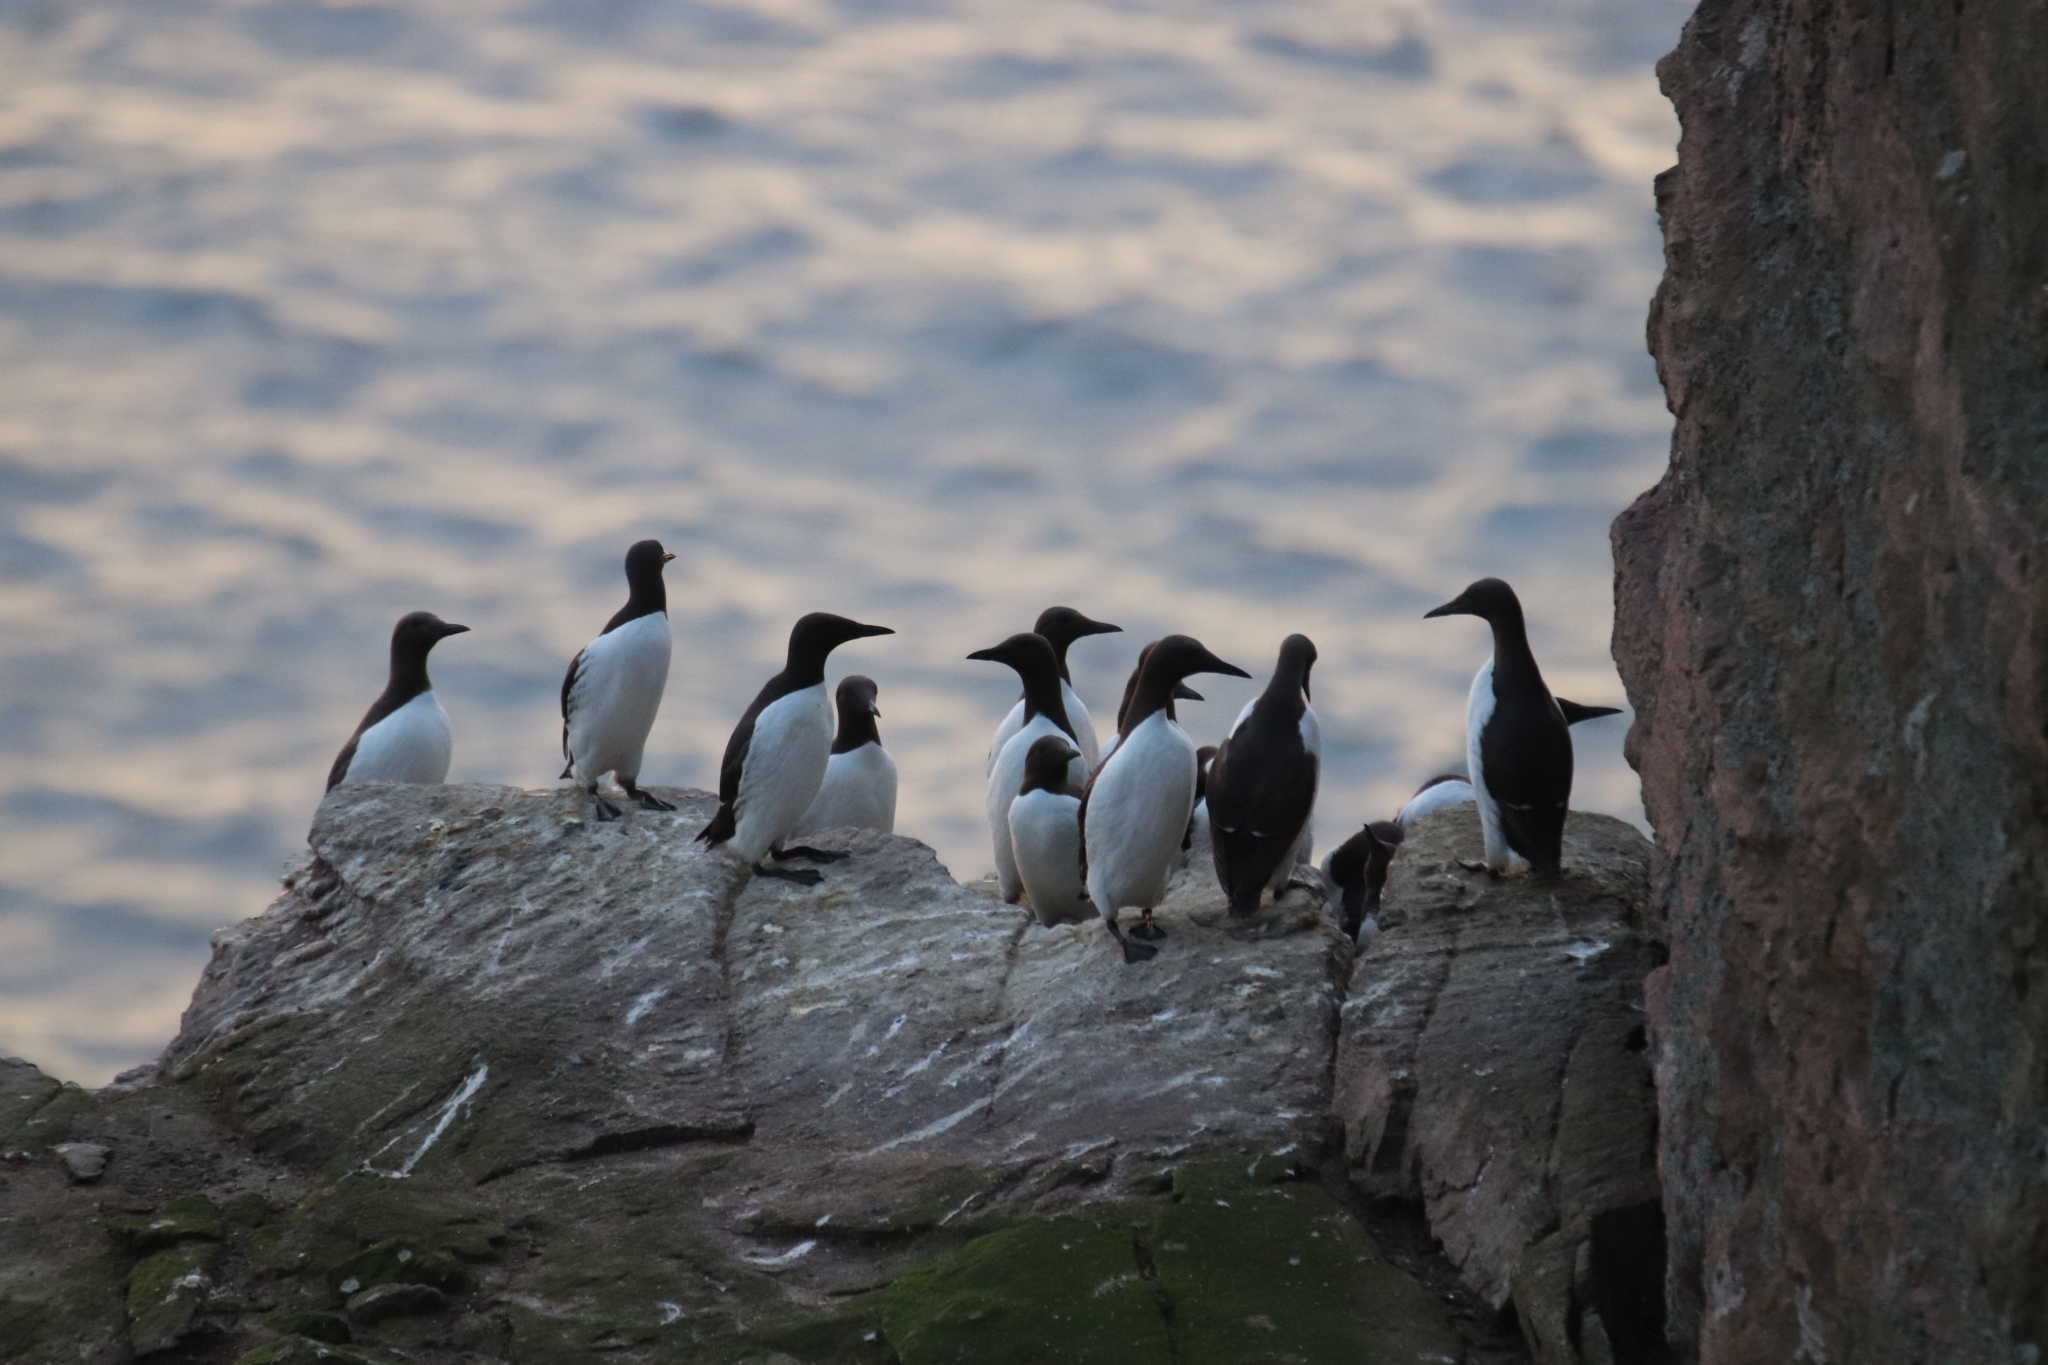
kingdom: Animalia
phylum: Chordata
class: Aves
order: Charadriiformes
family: Alcidae
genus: Uria
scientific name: Uria aalge
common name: Common murre
